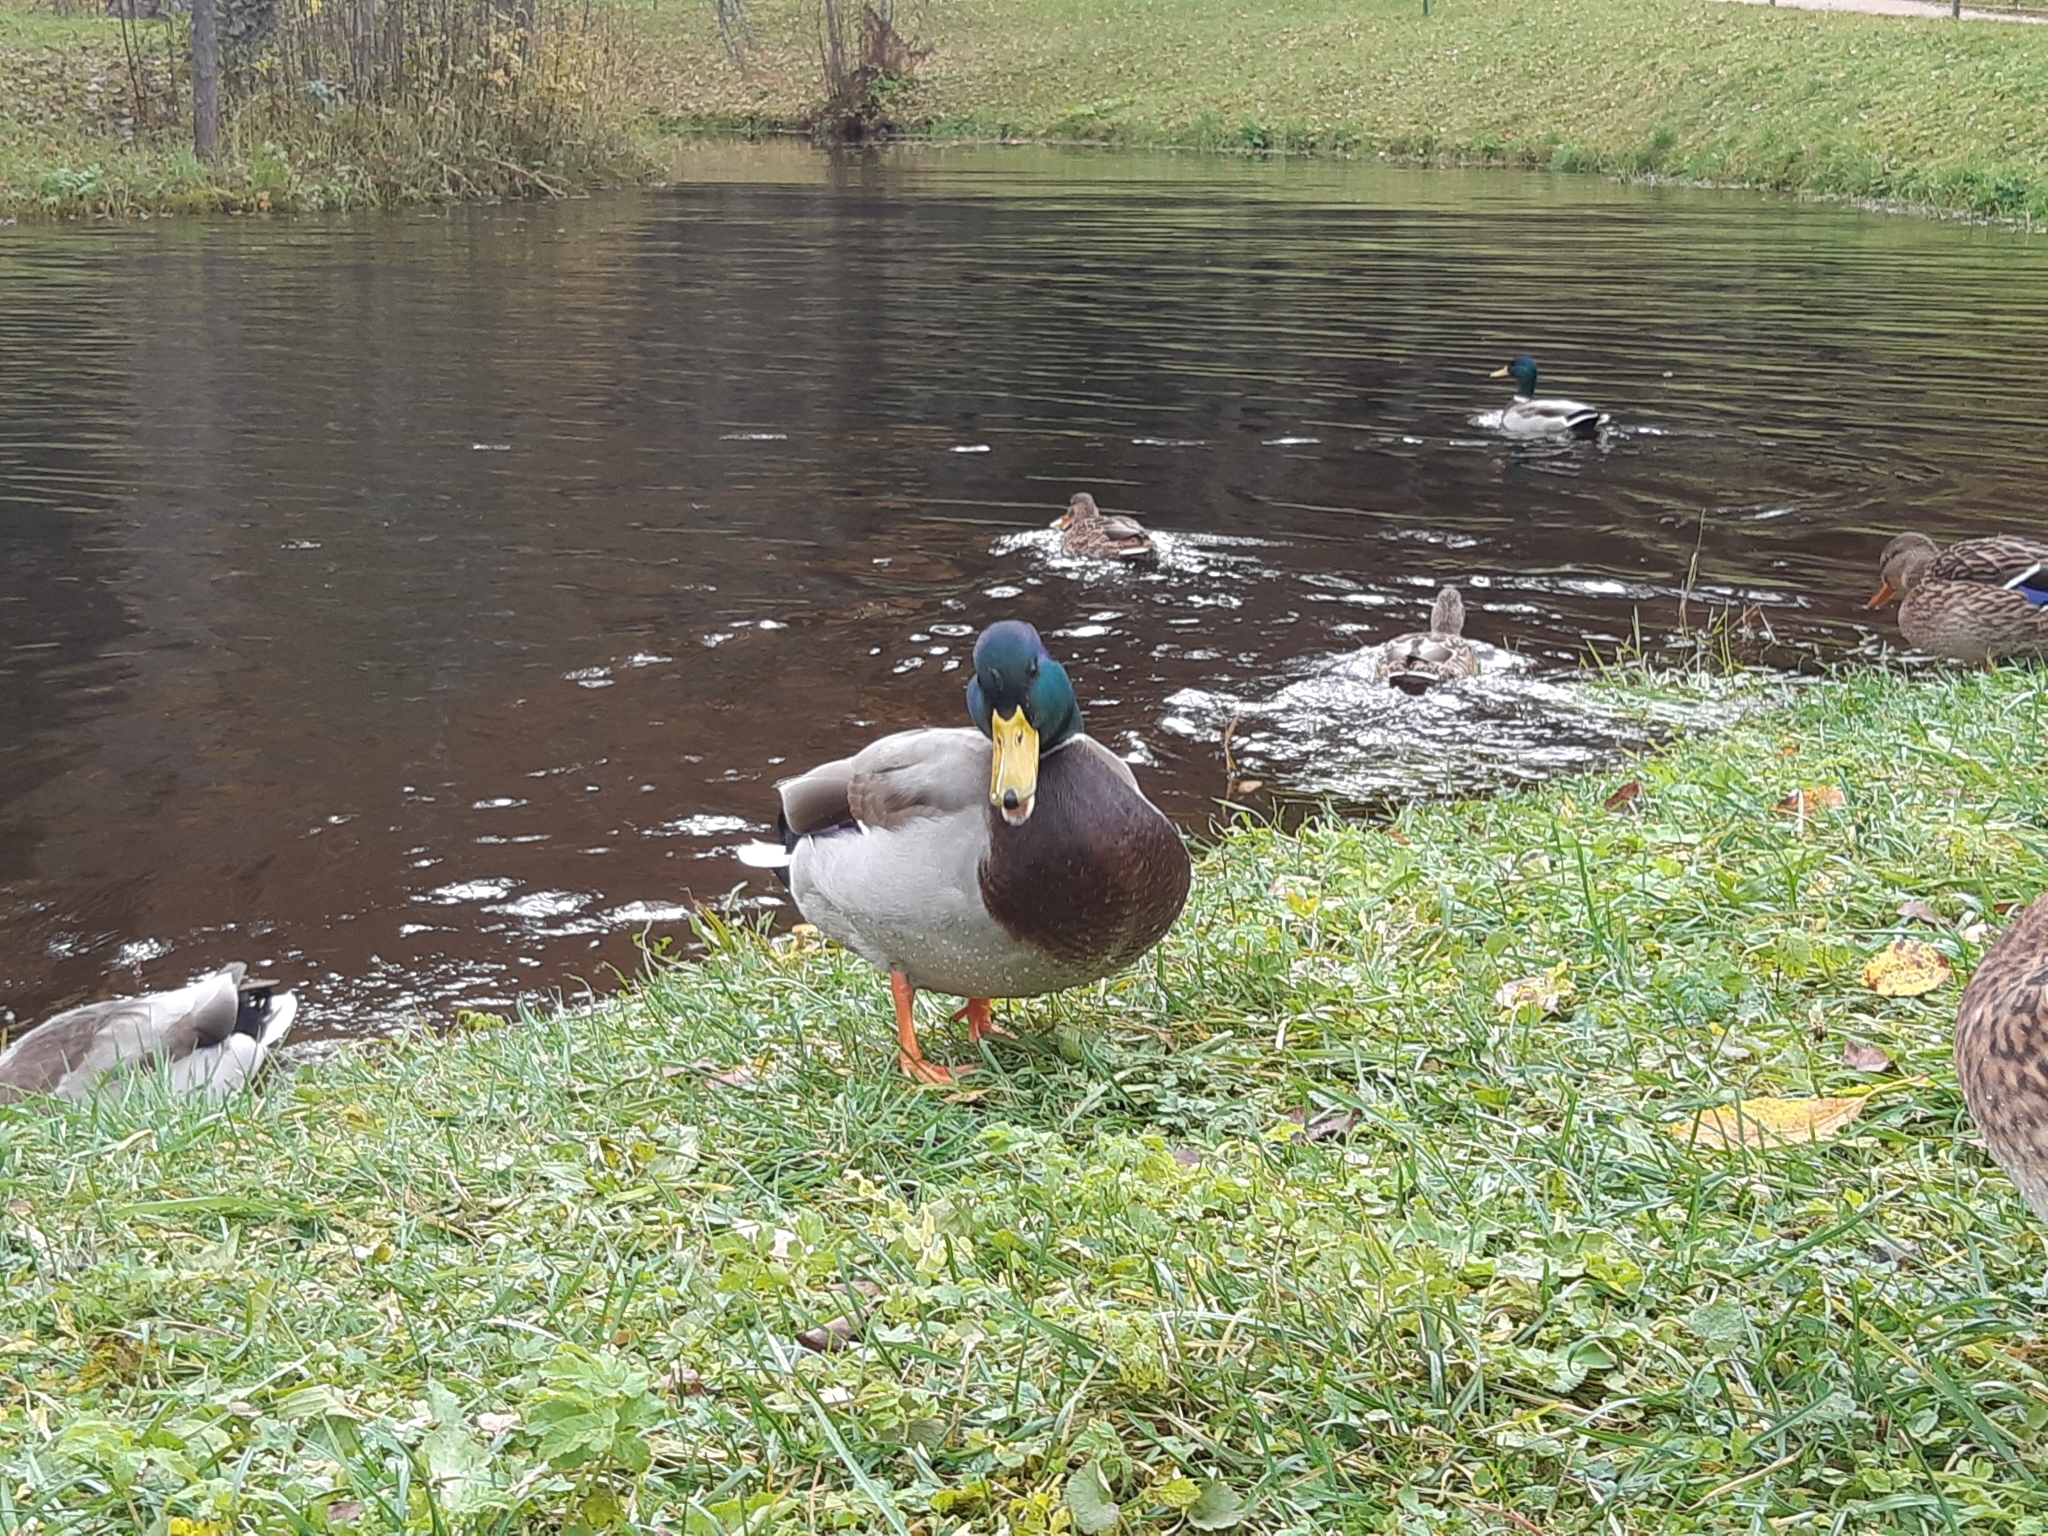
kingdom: Animalia
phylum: Chordata
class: Aves
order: Anseriformes
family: Anatidae
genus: Anas
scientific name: Anas platyrhynchos
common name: Mallard
